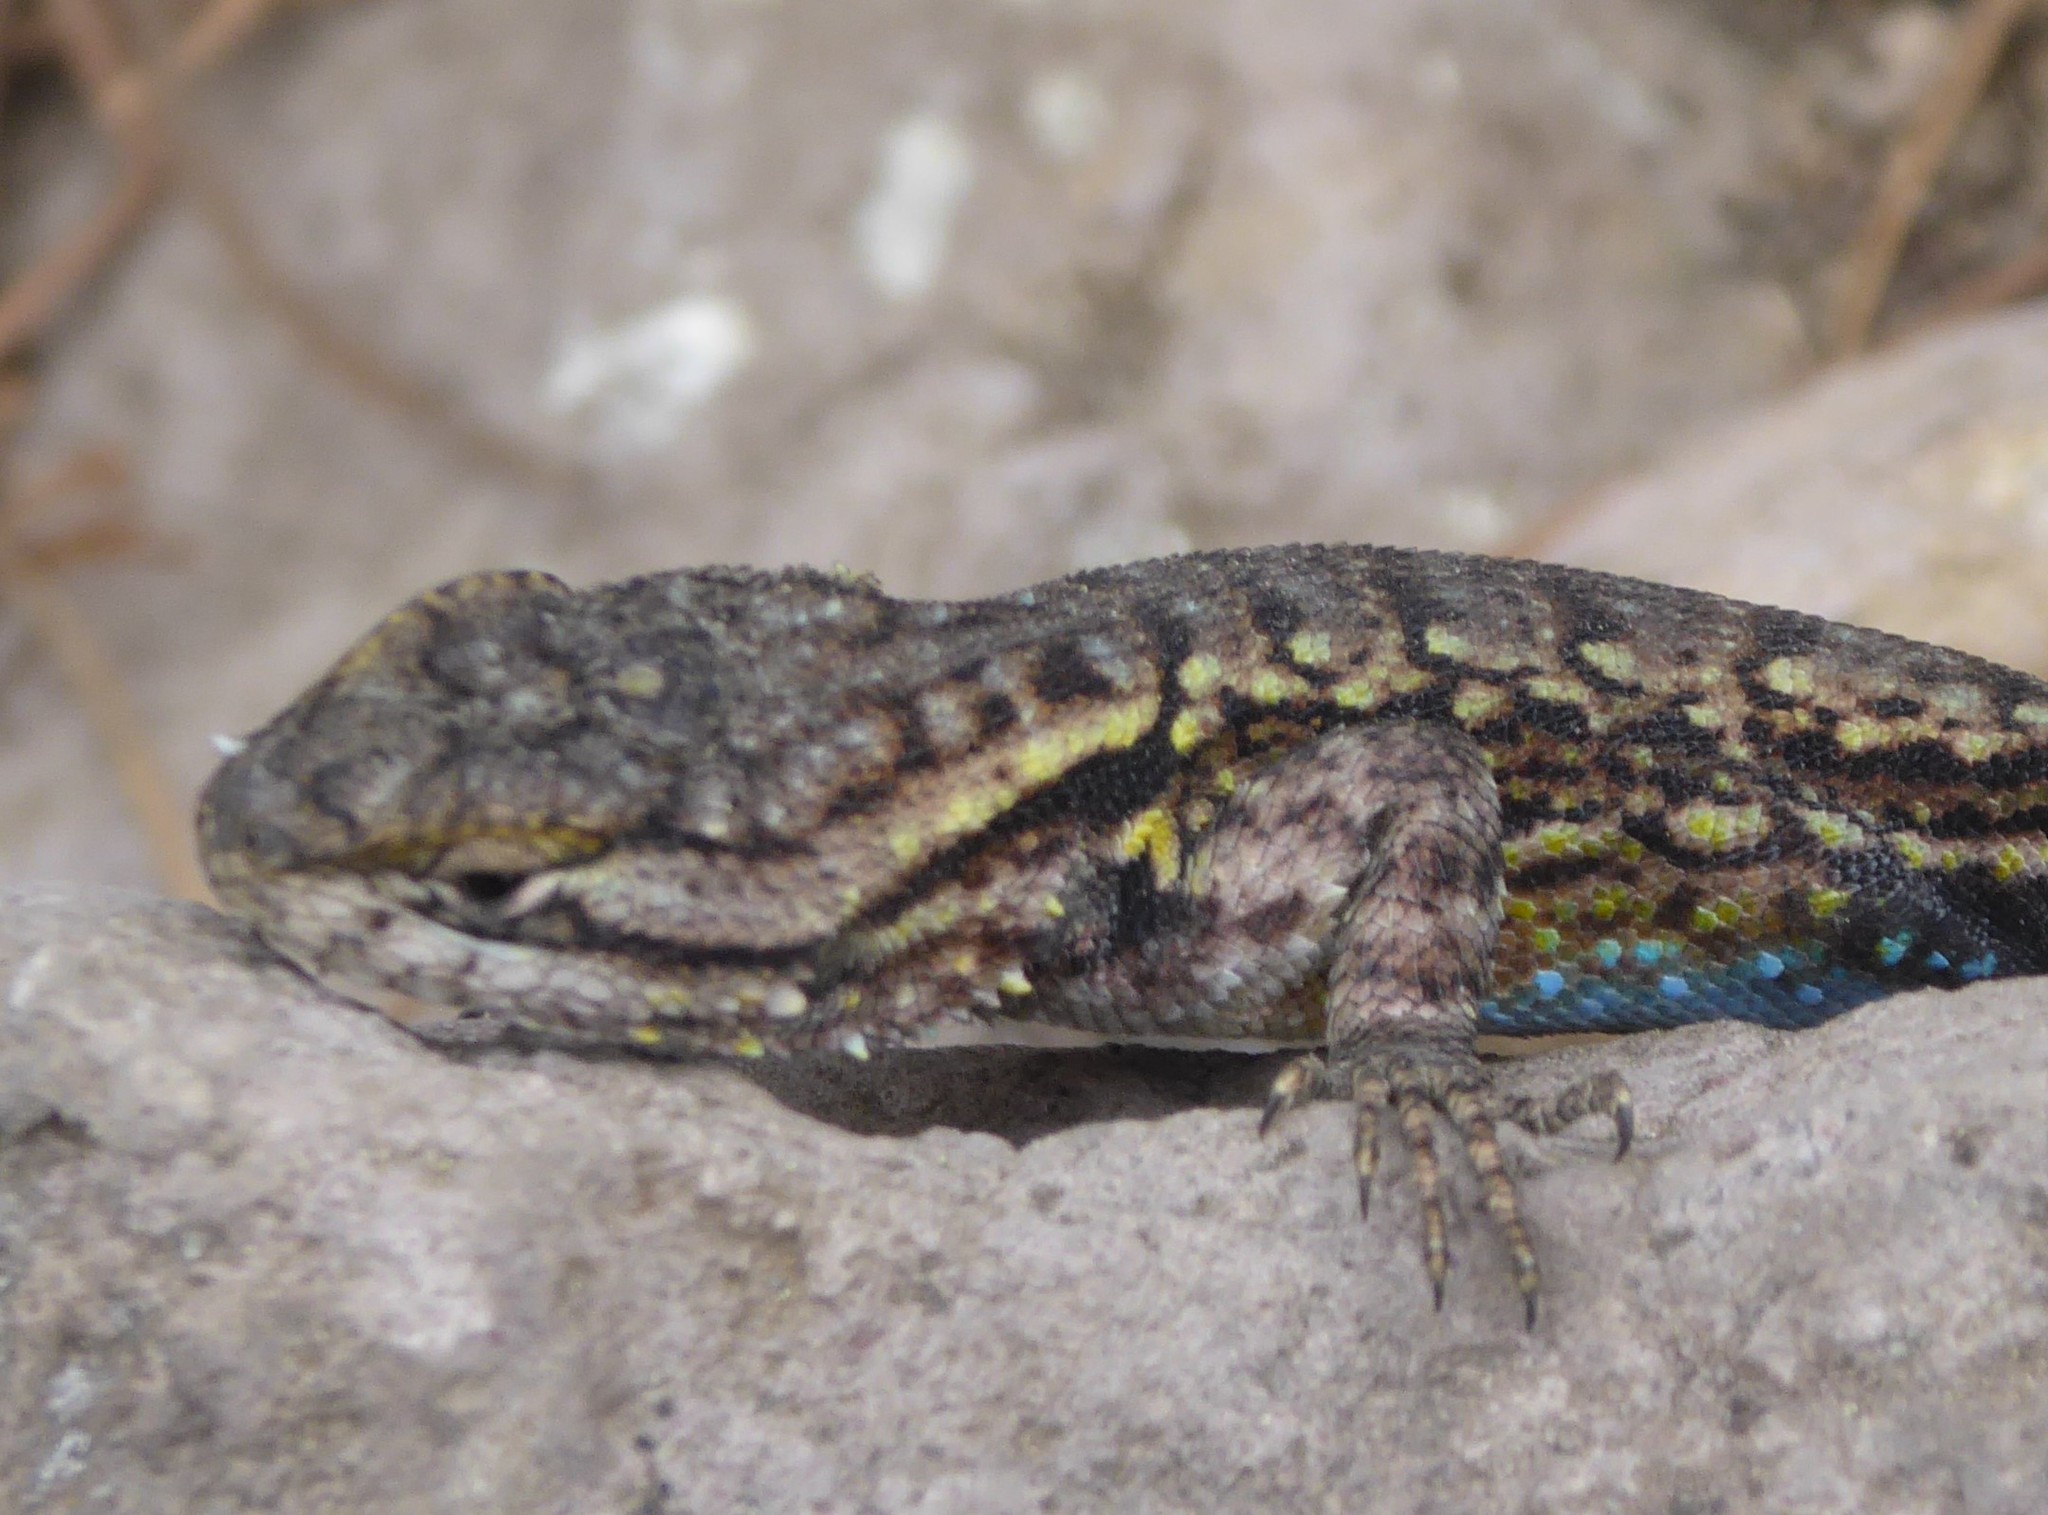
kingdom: Animalia
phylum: Chordata
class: Squamata
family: Phrynosomatidae
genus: Sceloporus
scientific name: Sceloporus anahuacus
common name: Anahuacan bunchgrass lizard
